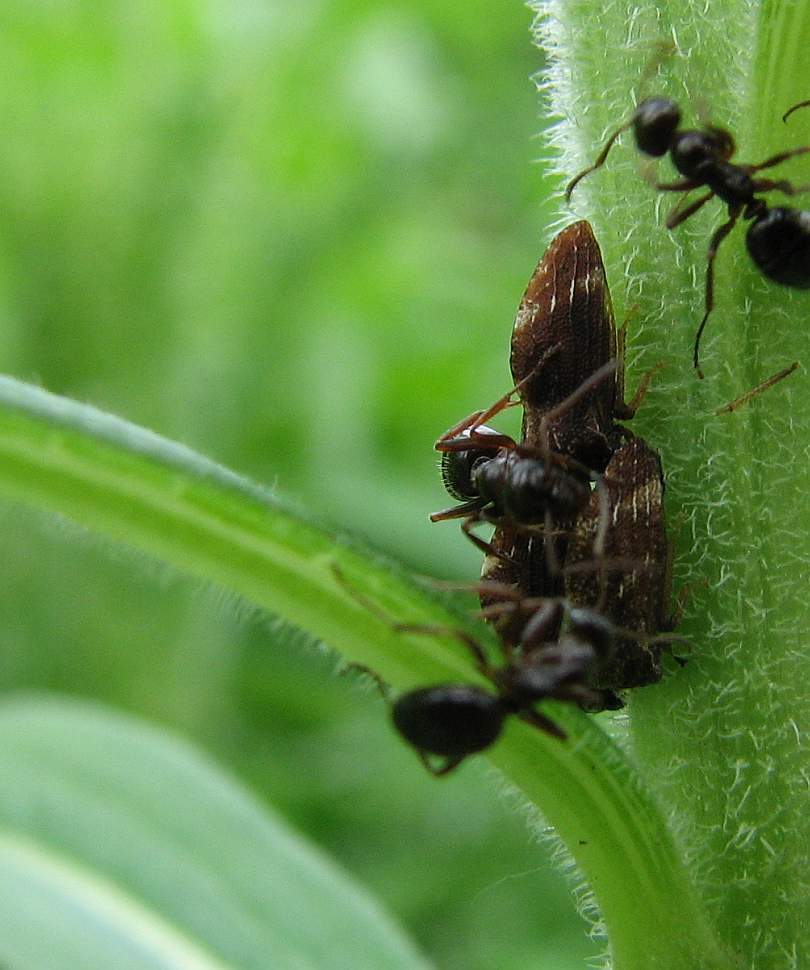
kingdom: Animalia
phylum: Arthropoda
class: Insecta
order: Hemiptera
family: Membracidae
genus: Publilia
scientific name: Publilia concava
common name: Aster treehopper
